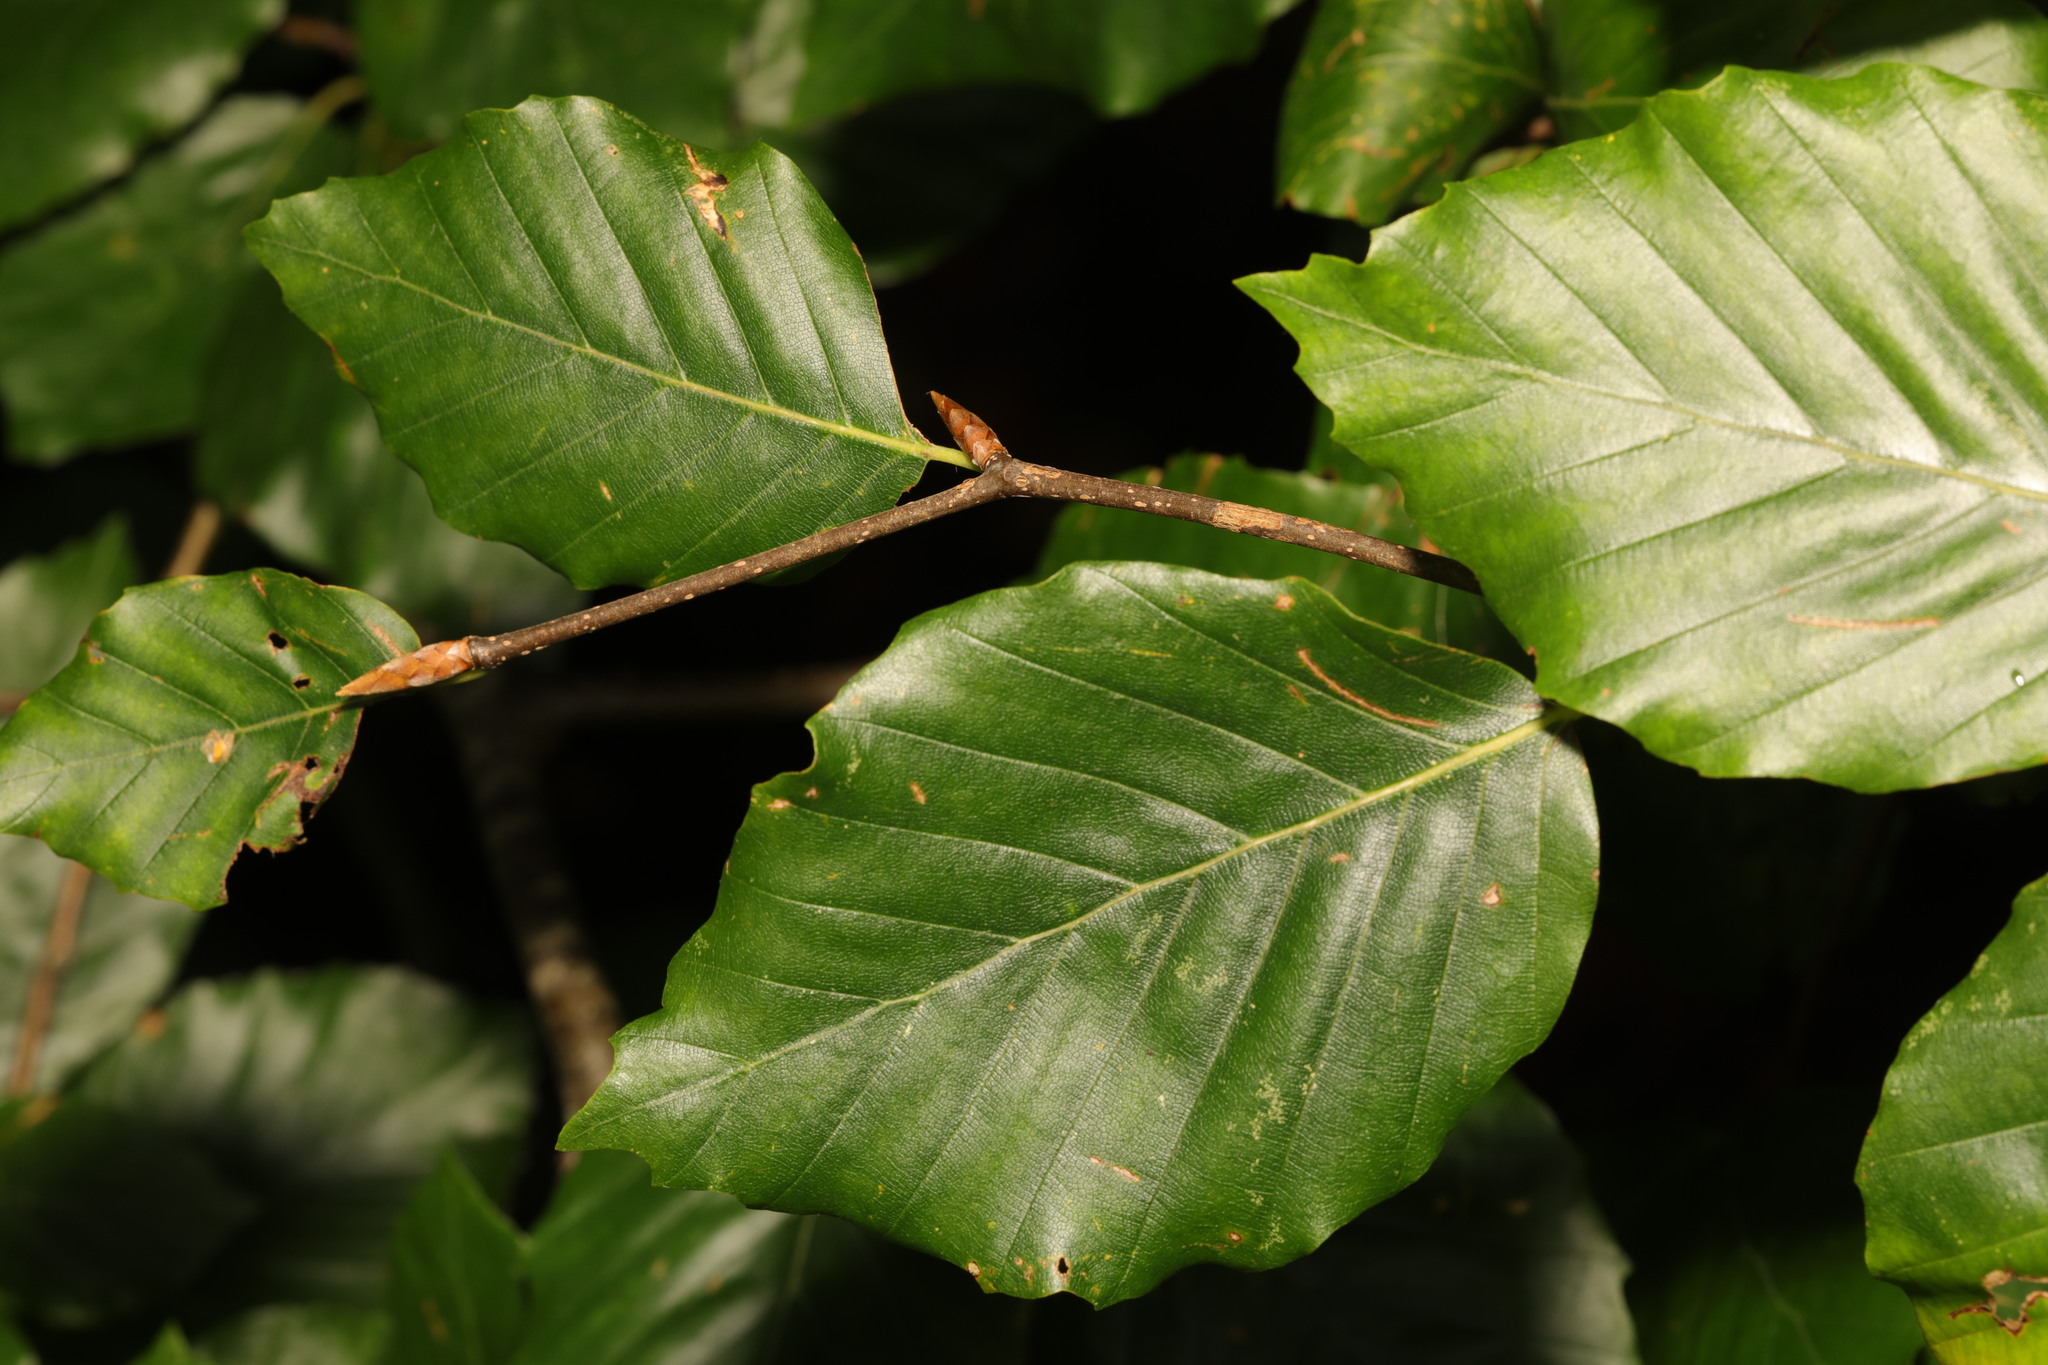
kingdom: Plantae
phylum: Tracheophyta
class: Magnoliopsida
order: Fagales
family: Fagaceae
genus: Fagus
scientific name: Fagus sylvatica
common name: Beech
